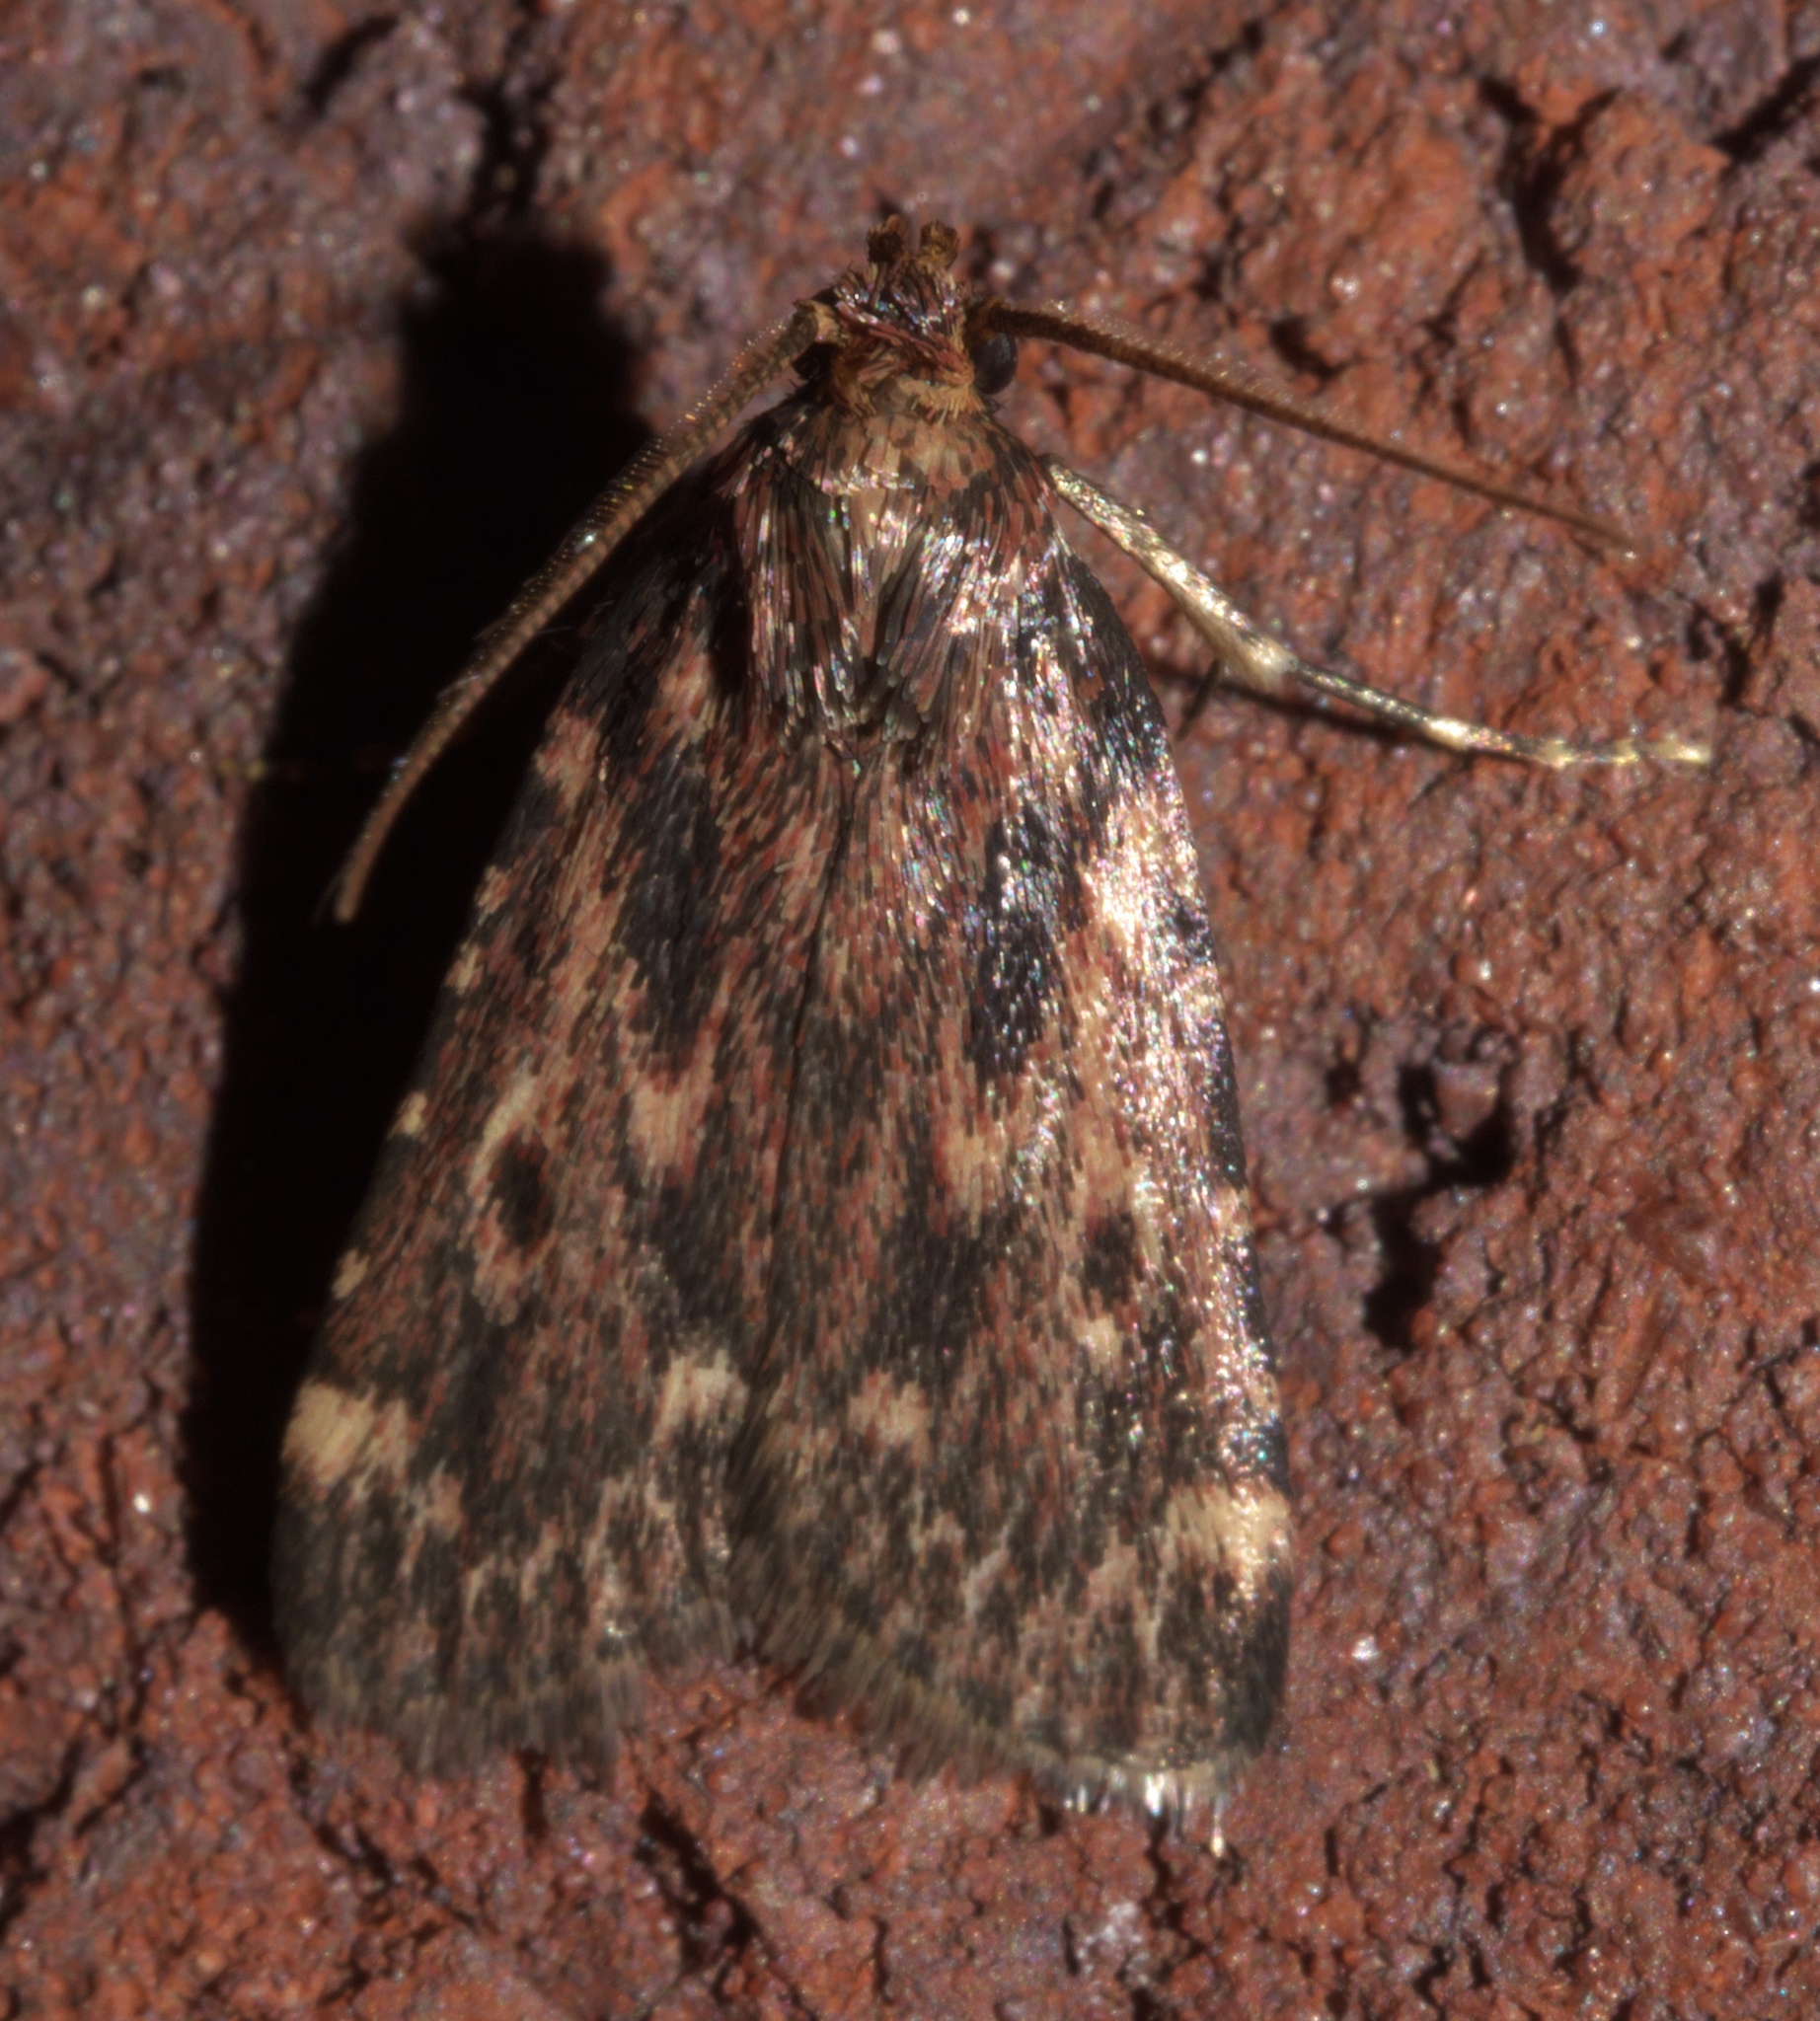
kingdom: Animalia
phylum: Arthropoda
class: Insecta
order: Lepidoptera
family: Pyralidae
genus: Aglossa
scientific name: Aglossa cuprina
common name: Grease moth
